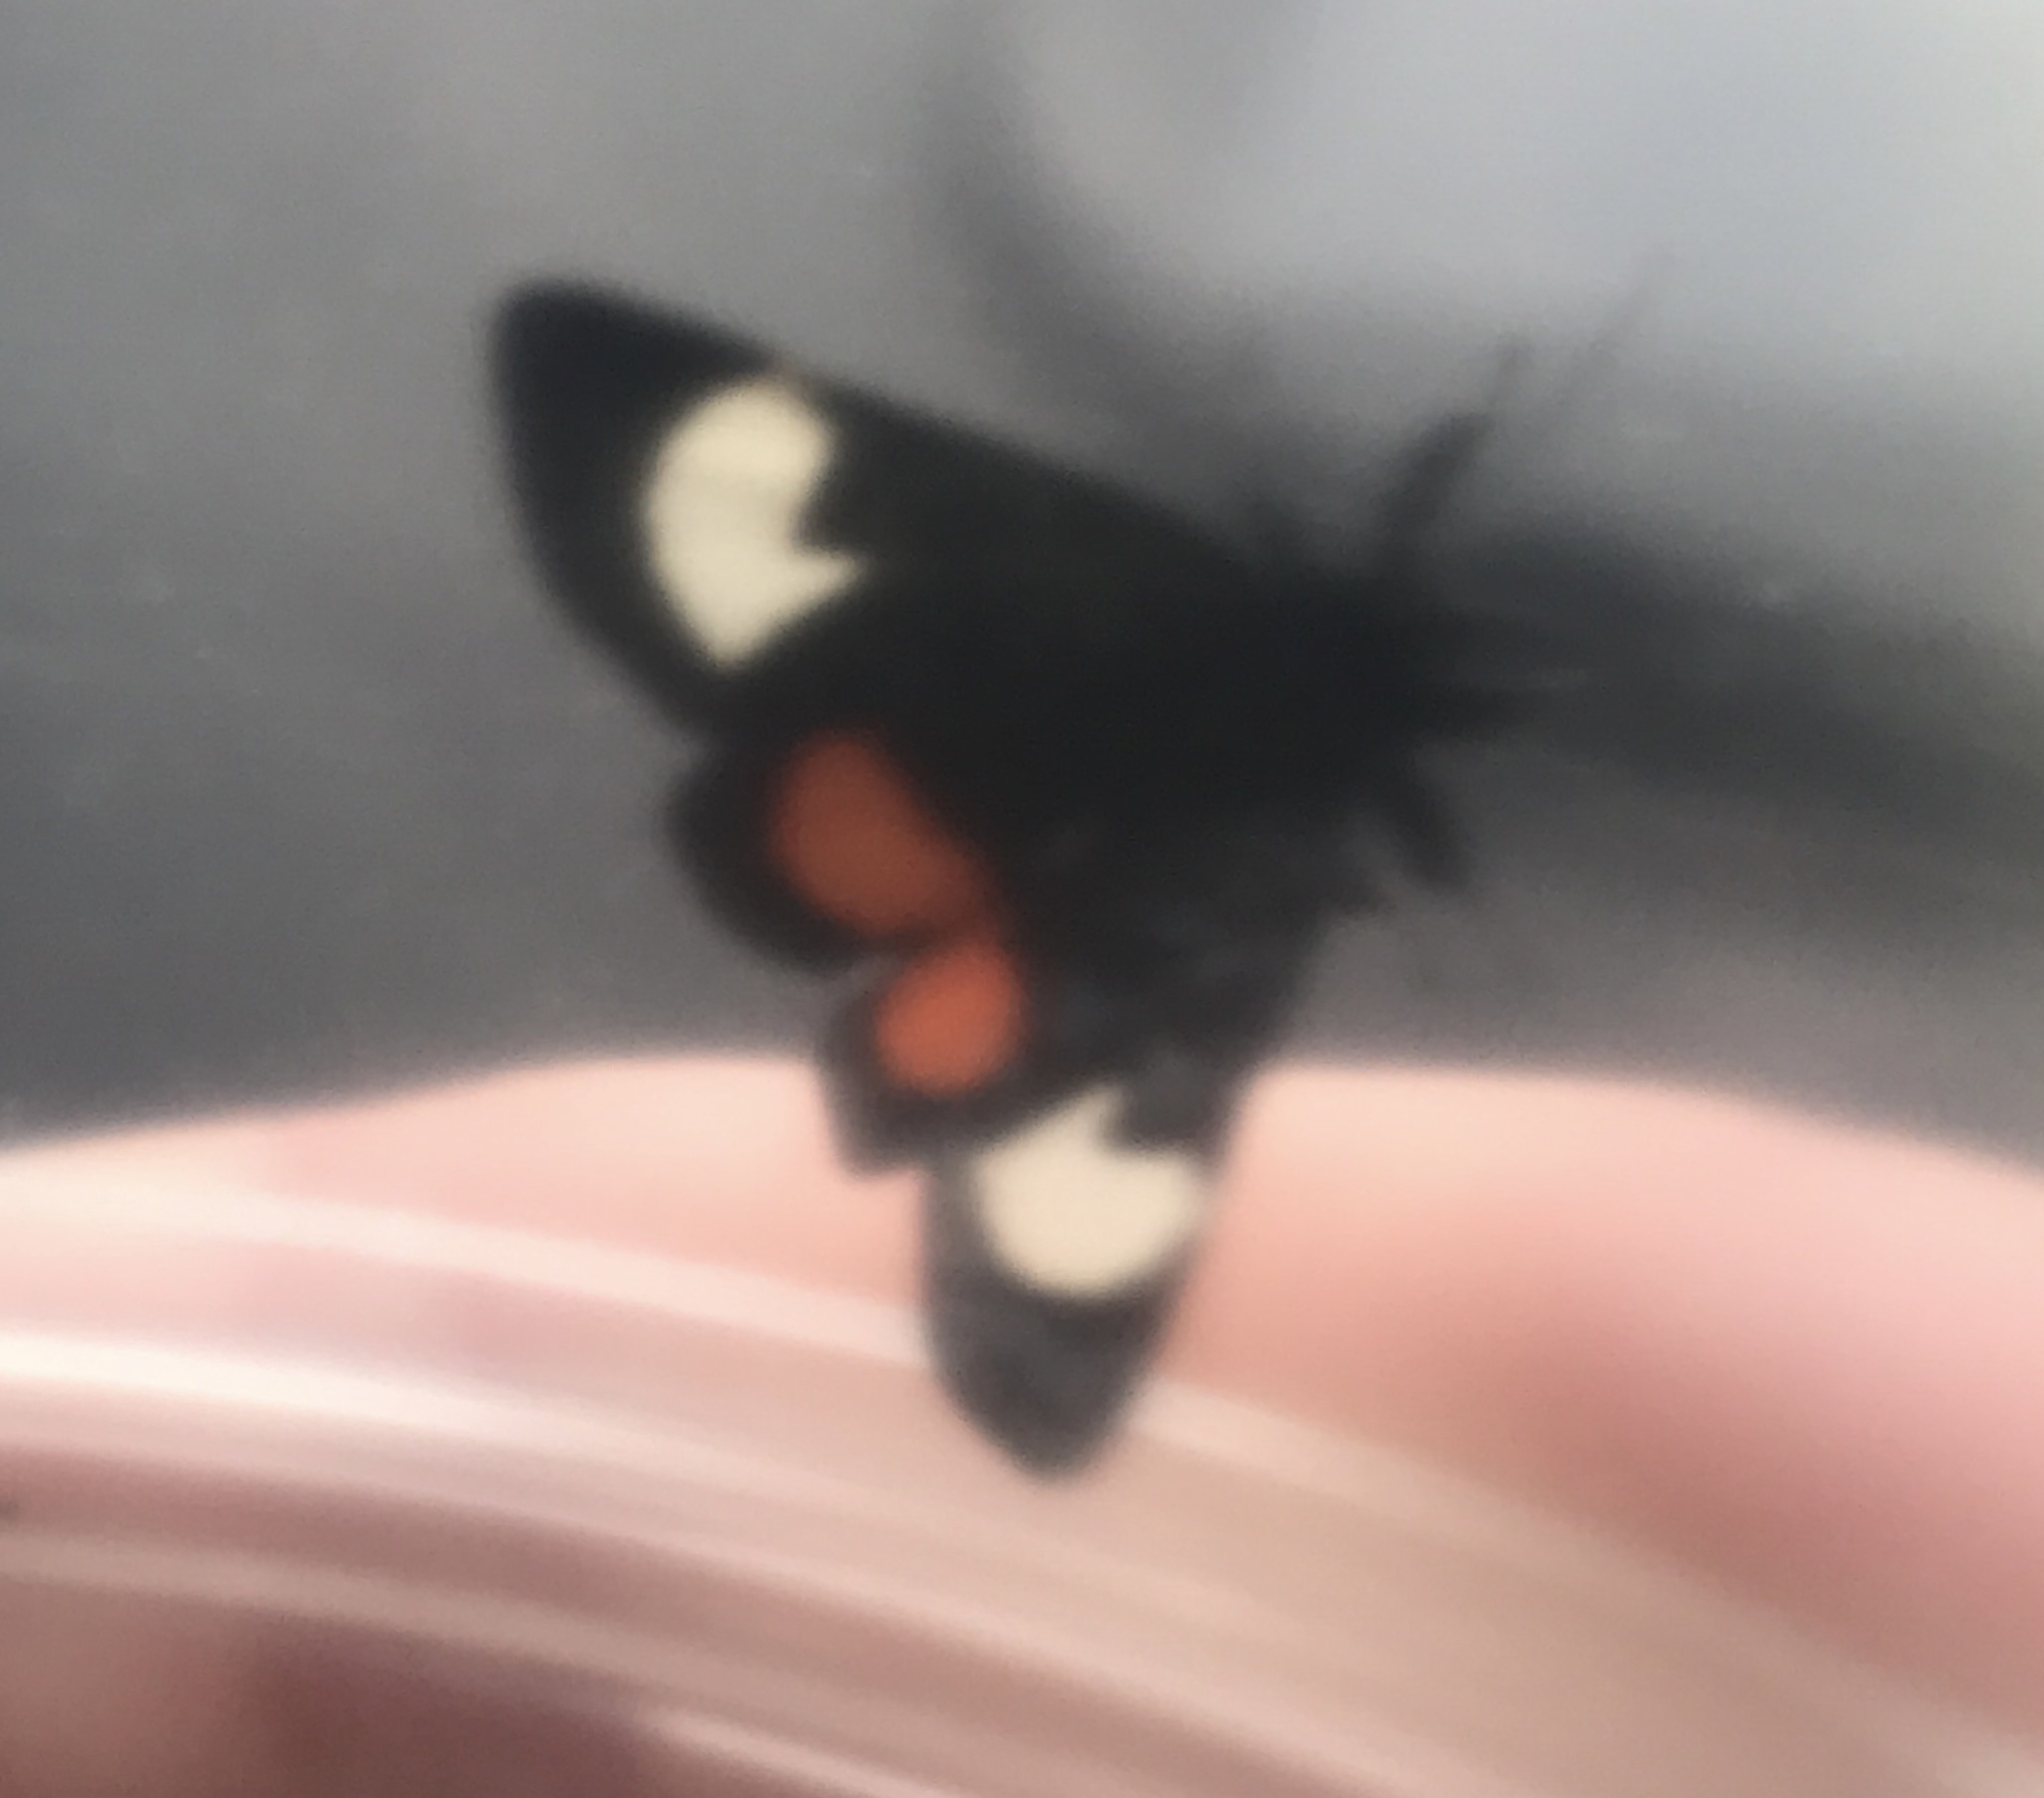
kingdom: Animalia
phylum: Arthropoda
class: Insecta
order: Lepidoptera
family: Noctuidae
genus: Psychomorpha
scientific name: Psychomorpha epimenis
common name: Grapevine epimenis moth
